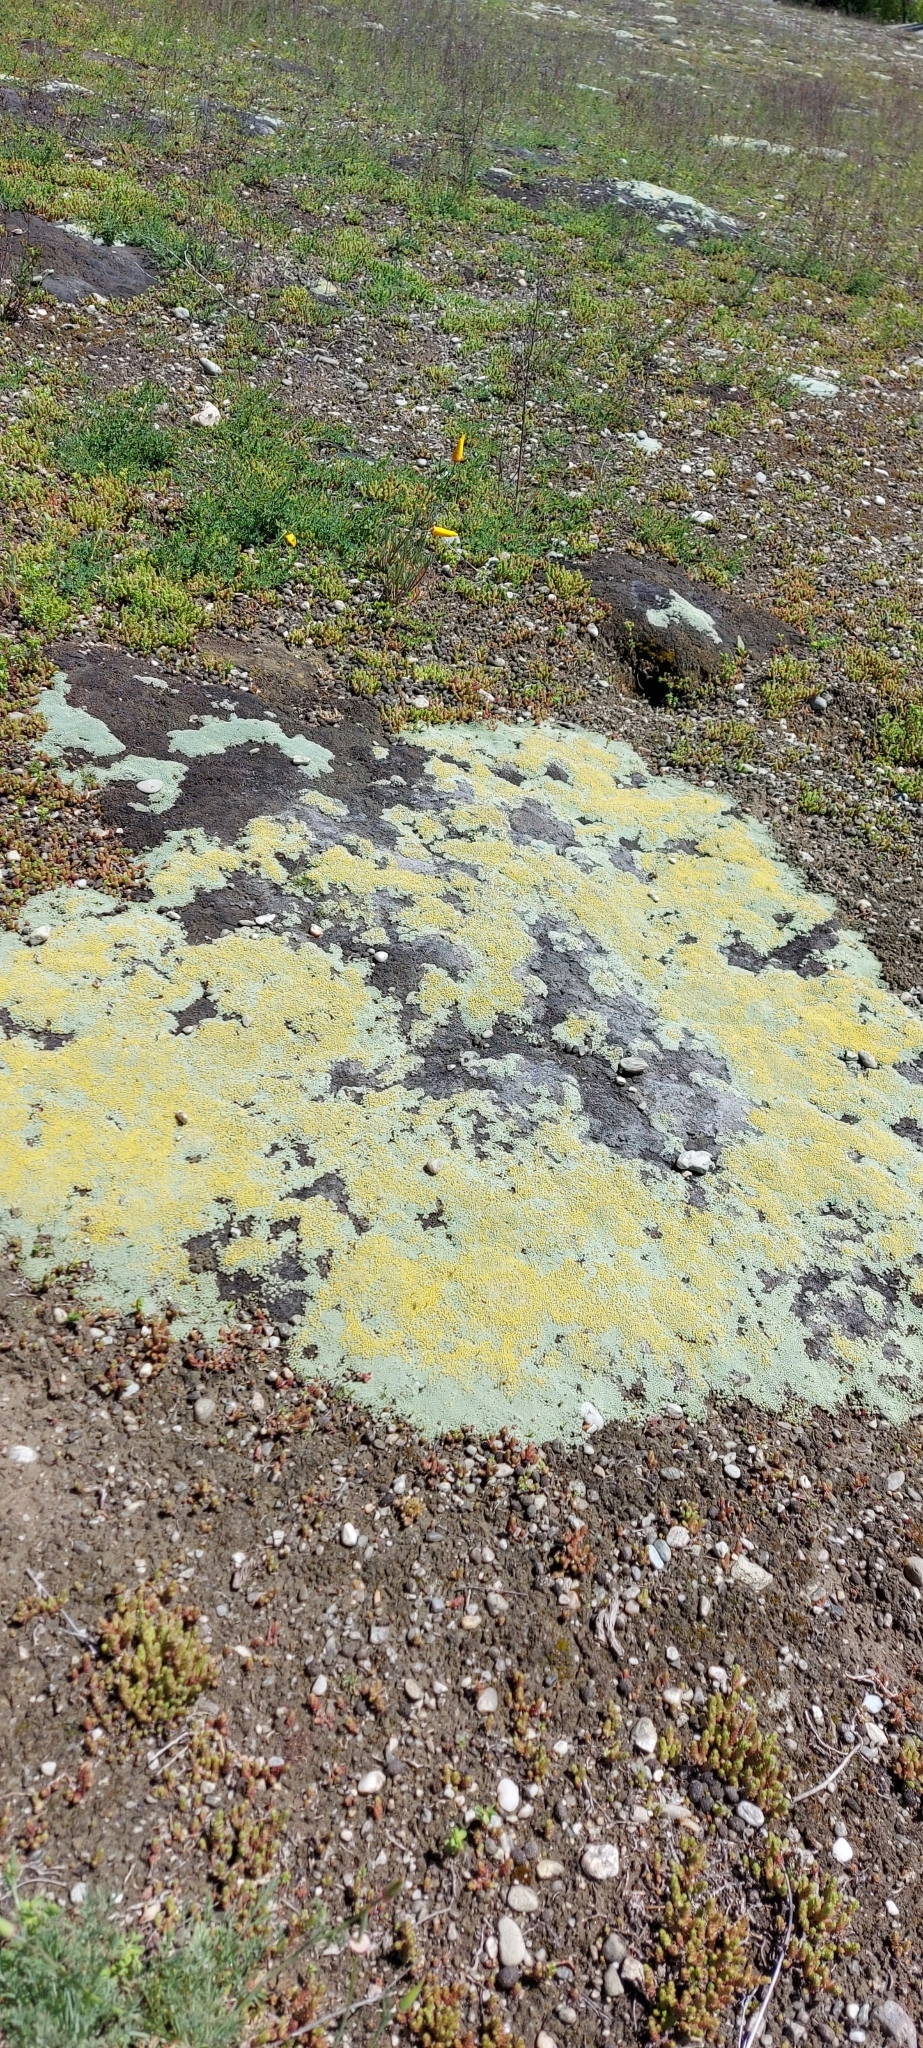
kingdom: Plantae
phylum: Tracheophyta
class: Magnoliopsida
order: Asterales
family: Asteraceae
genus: Raoulia
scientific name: Raoulia australis
